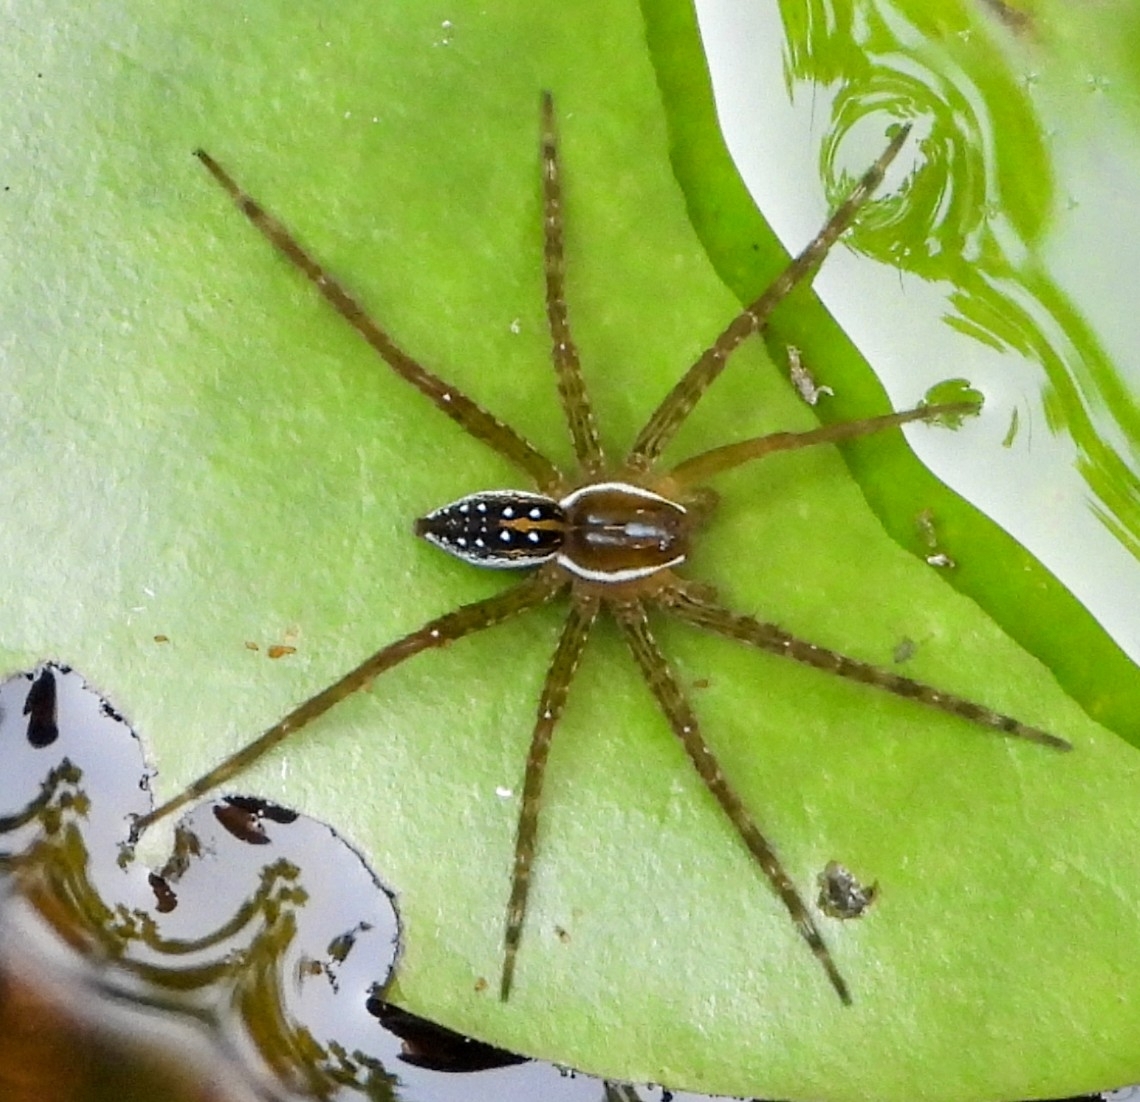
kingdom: Animalia
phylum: Arthropoda
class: Arachnida
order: Araneae
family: Pisauridae
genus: Dolomedes
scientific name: Dolomedes triton
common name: Six-spotted fishing spider
